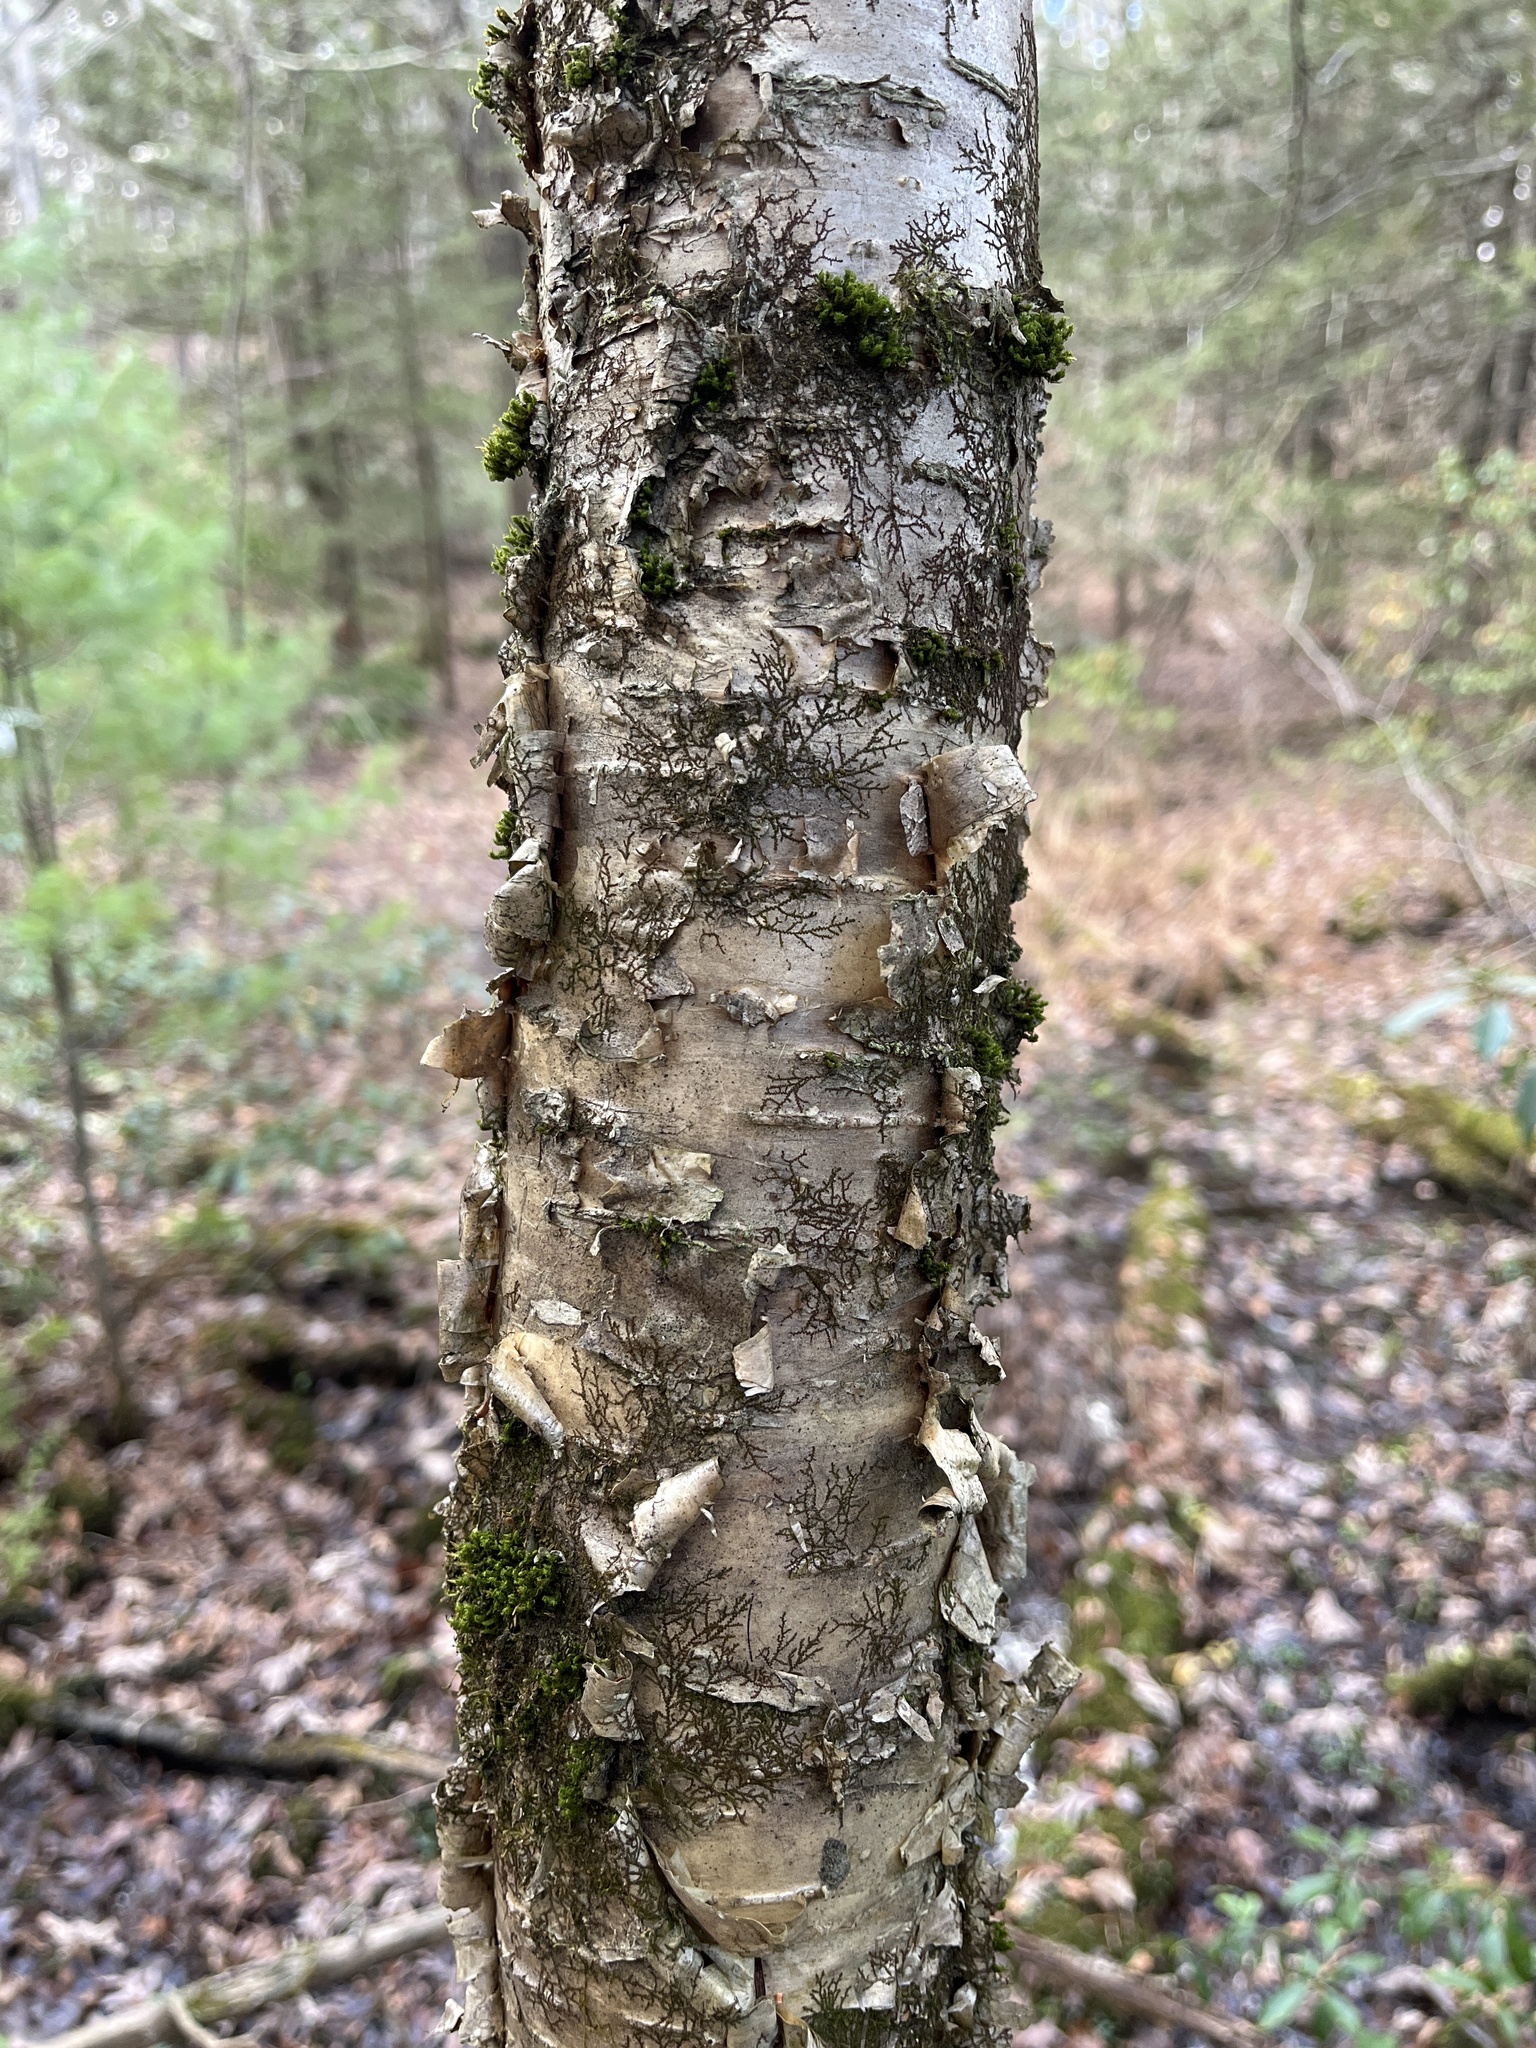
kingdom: Plantae
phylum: Tracheophyta
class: Magnoliopsida
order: Fagales
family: Betulaceae
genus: Betula
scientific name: Betula alleghaniensis
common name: Yellow birch
